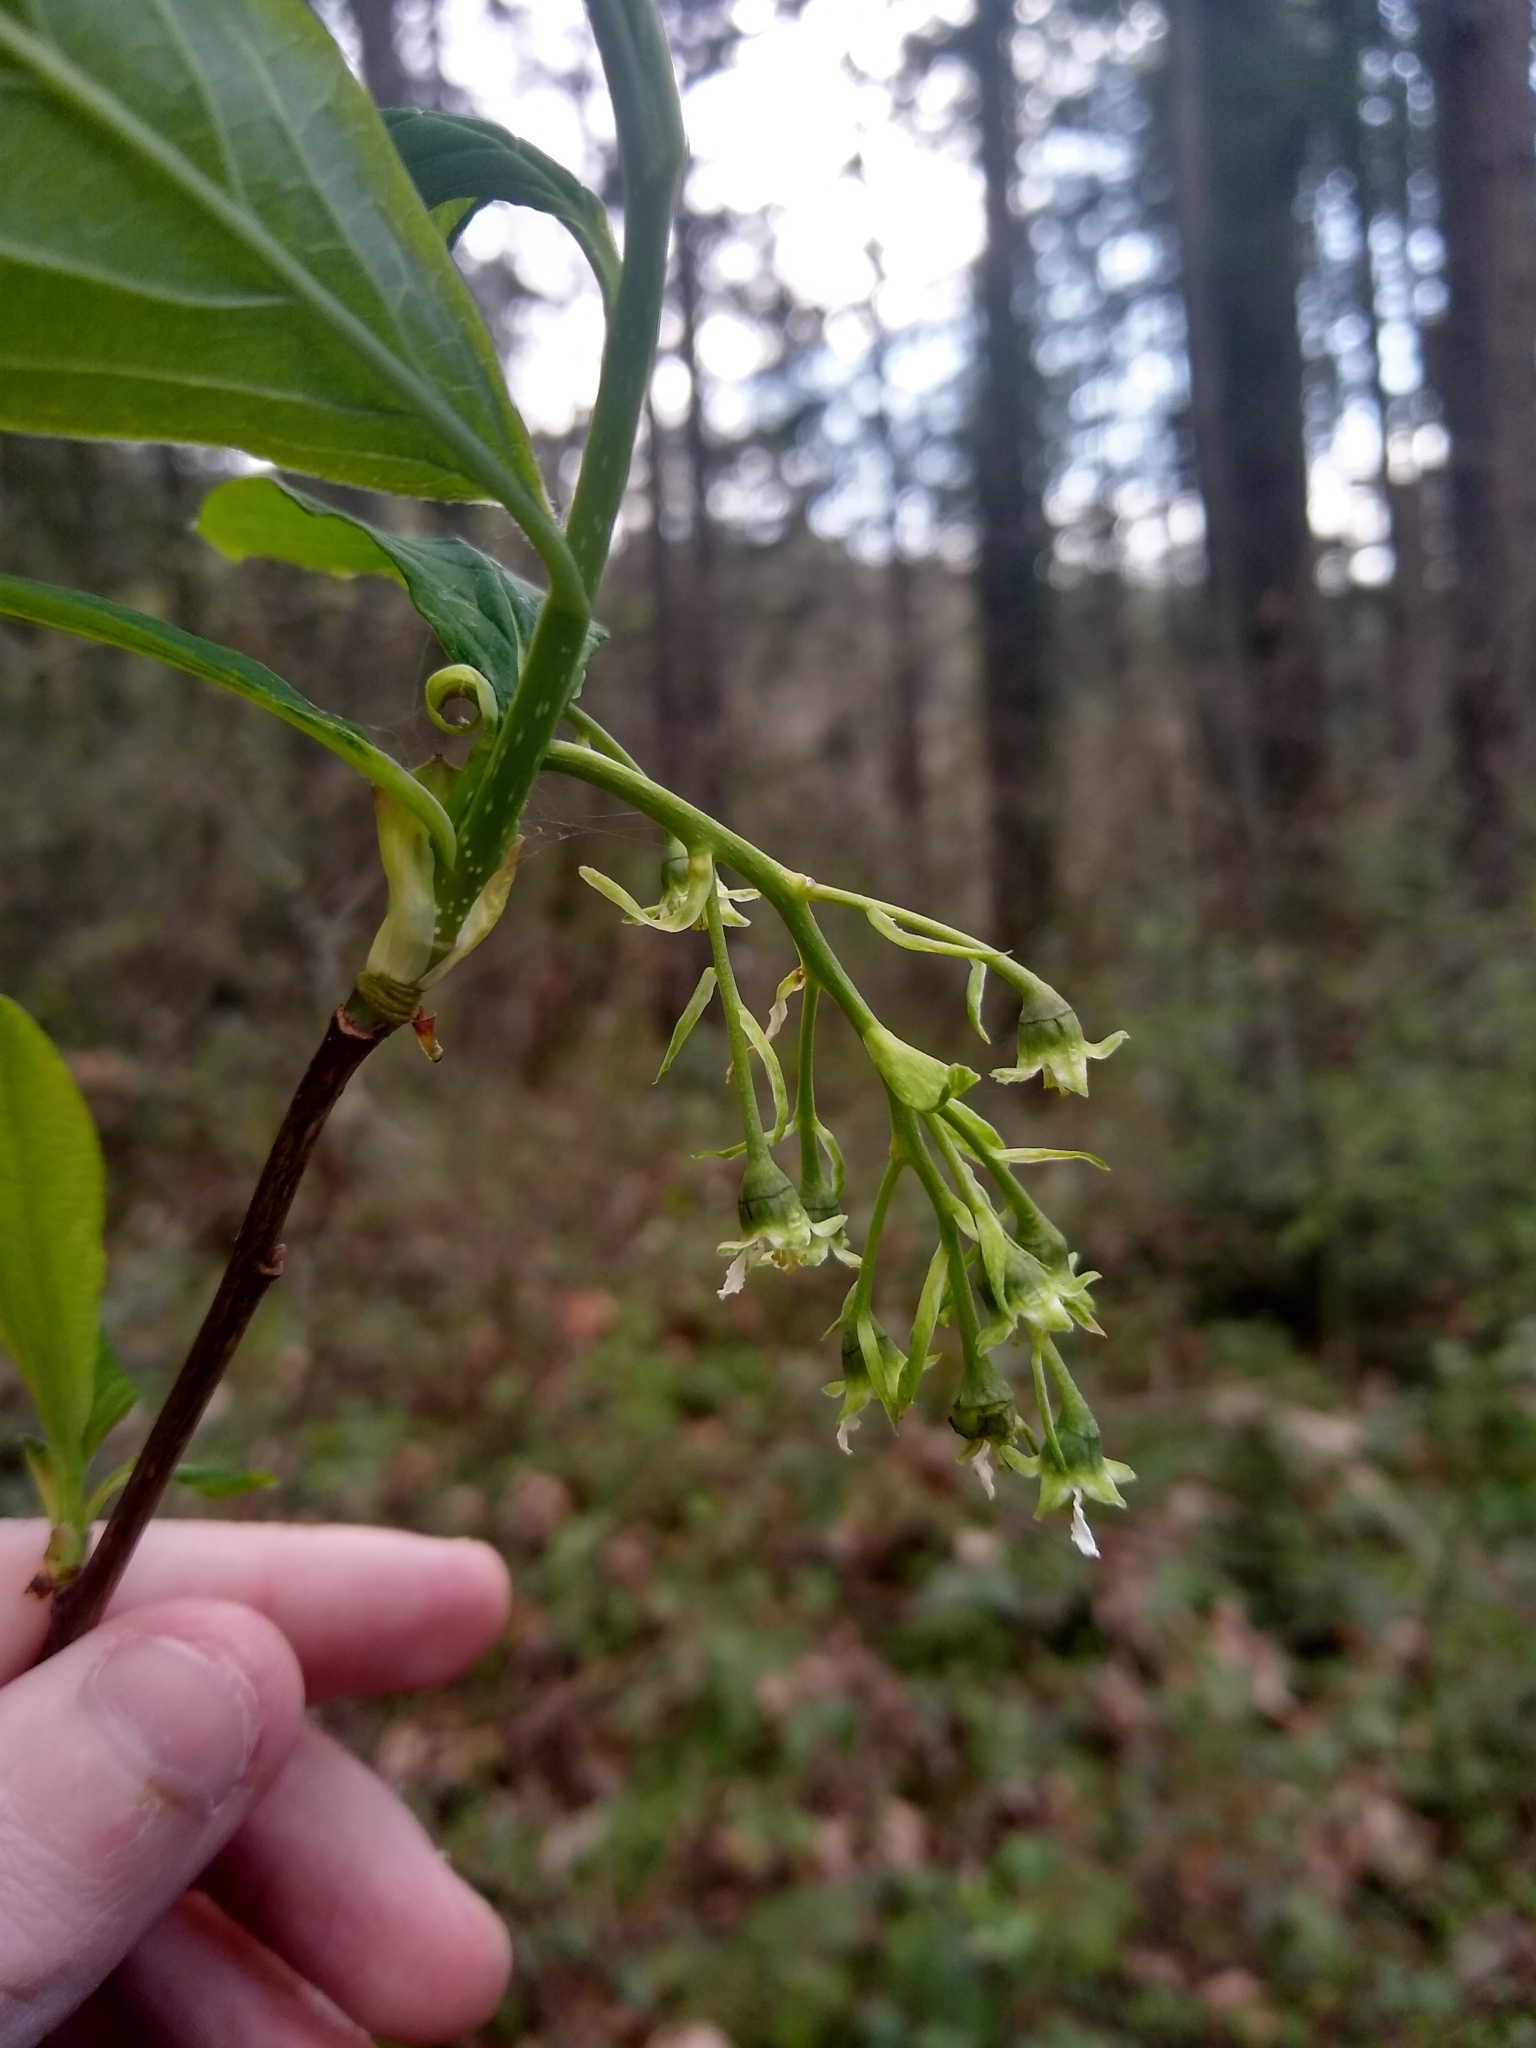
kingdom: Plantae
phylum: Tracheophyta
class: Magnoliopsida
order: Rosales
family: Rosaceae
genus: Oemleria
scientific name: Oemleria cerasiformis
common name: Osoberry
